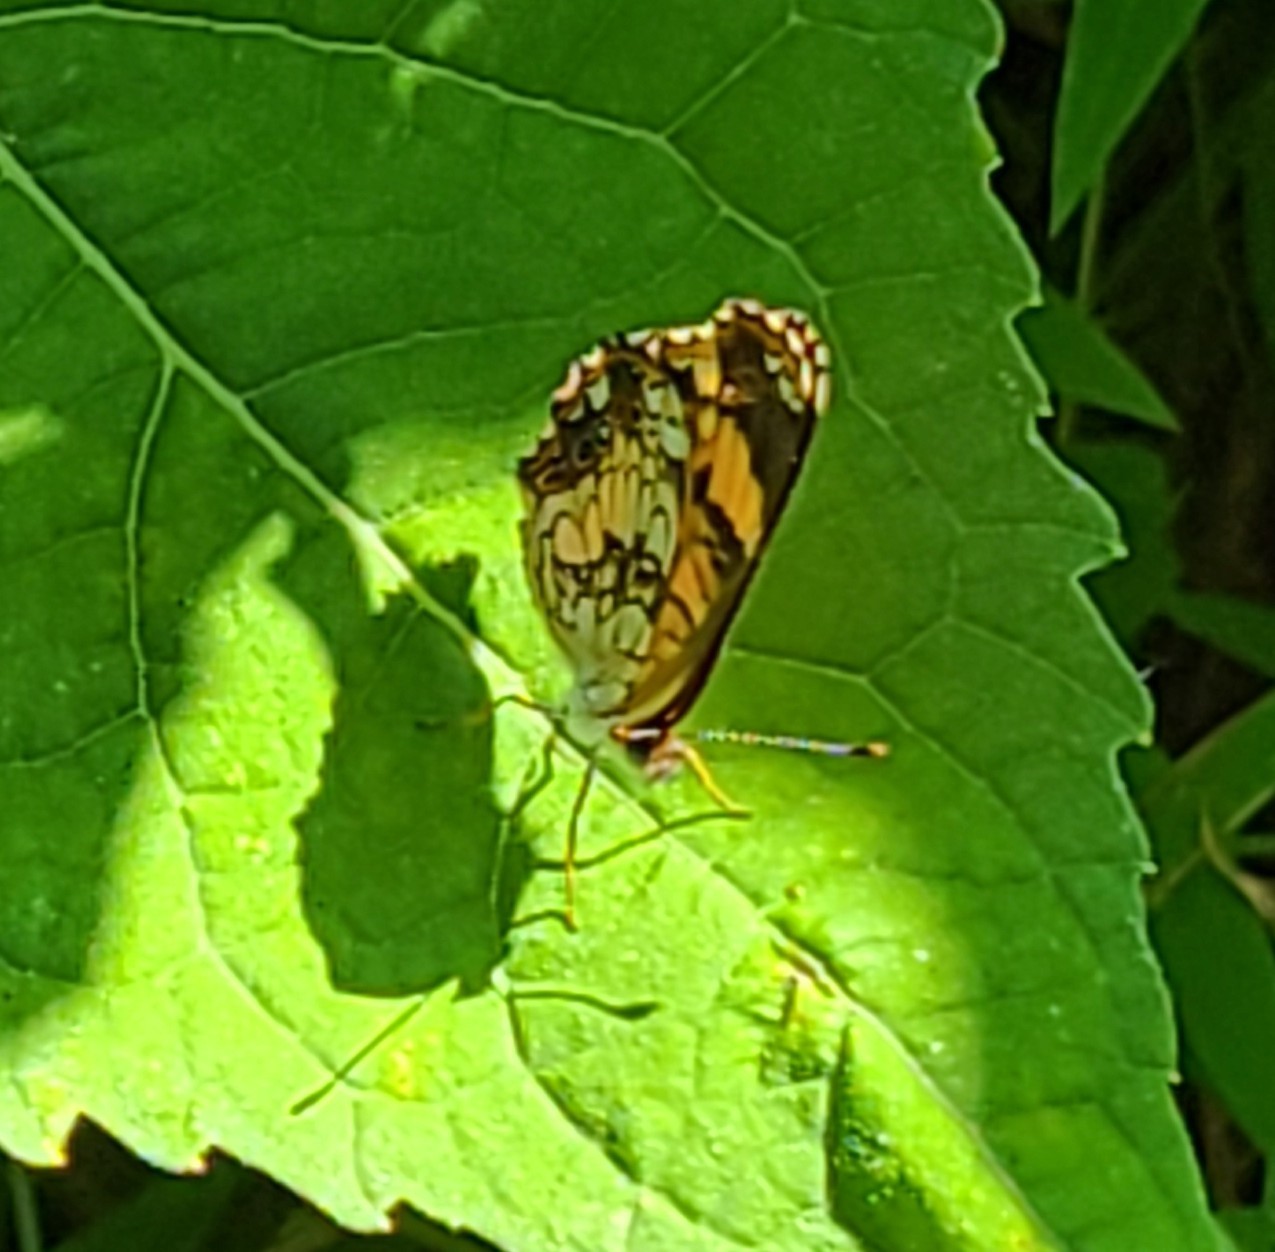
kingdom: Animalia
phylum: Arthropoda
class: Insecta
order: Lepidoptera
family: Nymphalidae
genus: Chlosyne
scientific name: Chlosyne nycteis
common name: Silvery checkerspot
